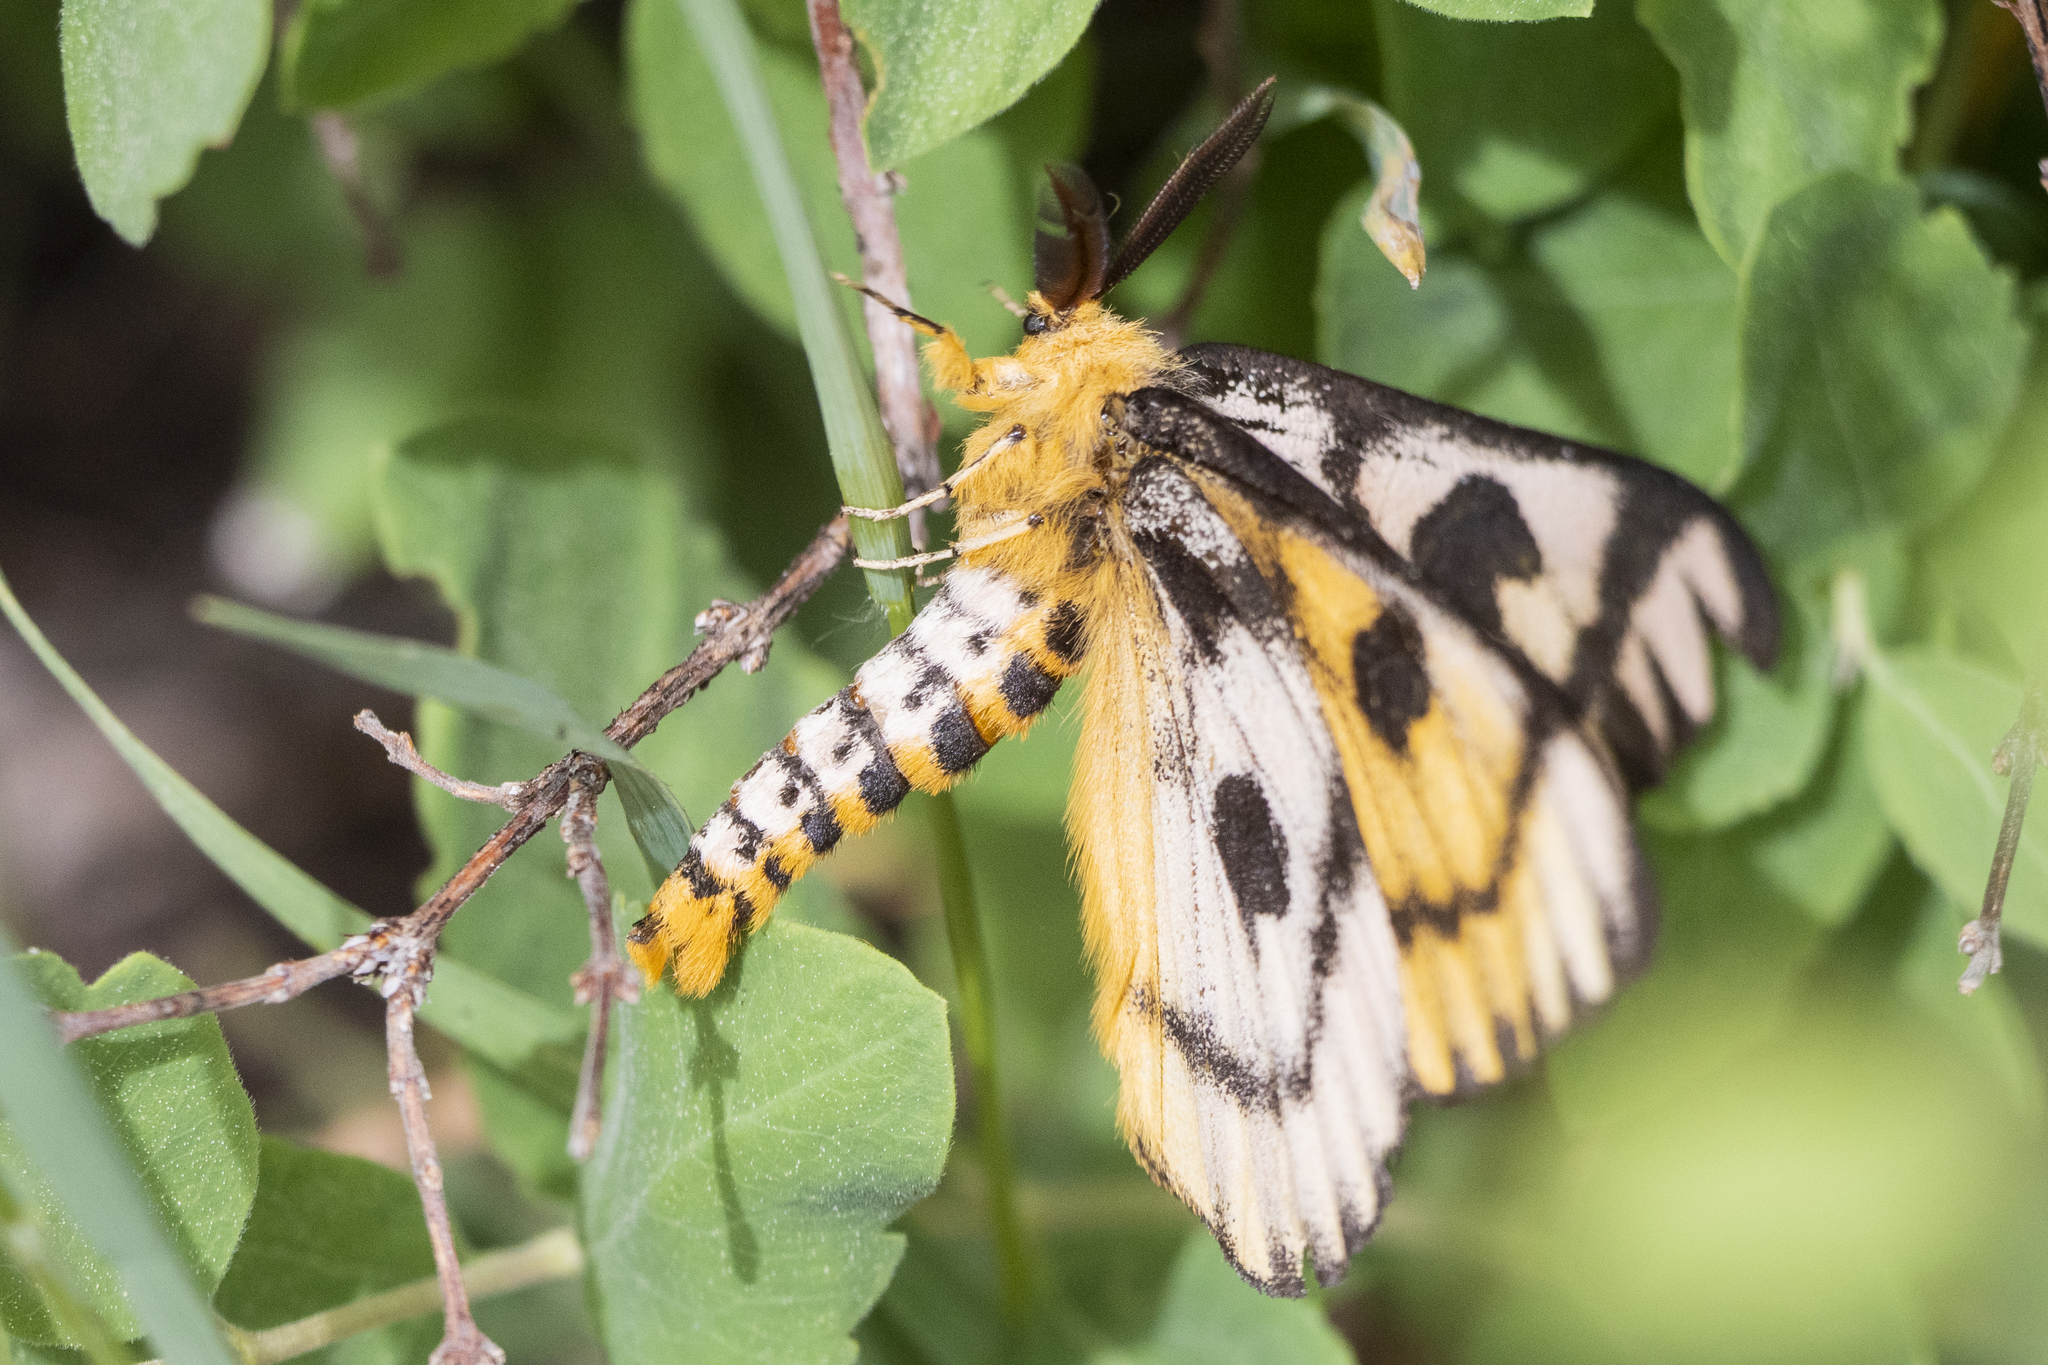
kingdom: Animalia
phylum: Arthropoda
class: Insecta
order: Lepidoptera
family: Saturniidae
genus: Hemileuca
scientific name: Hemileuca nutalli
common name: Nuttall's sheepmoth
